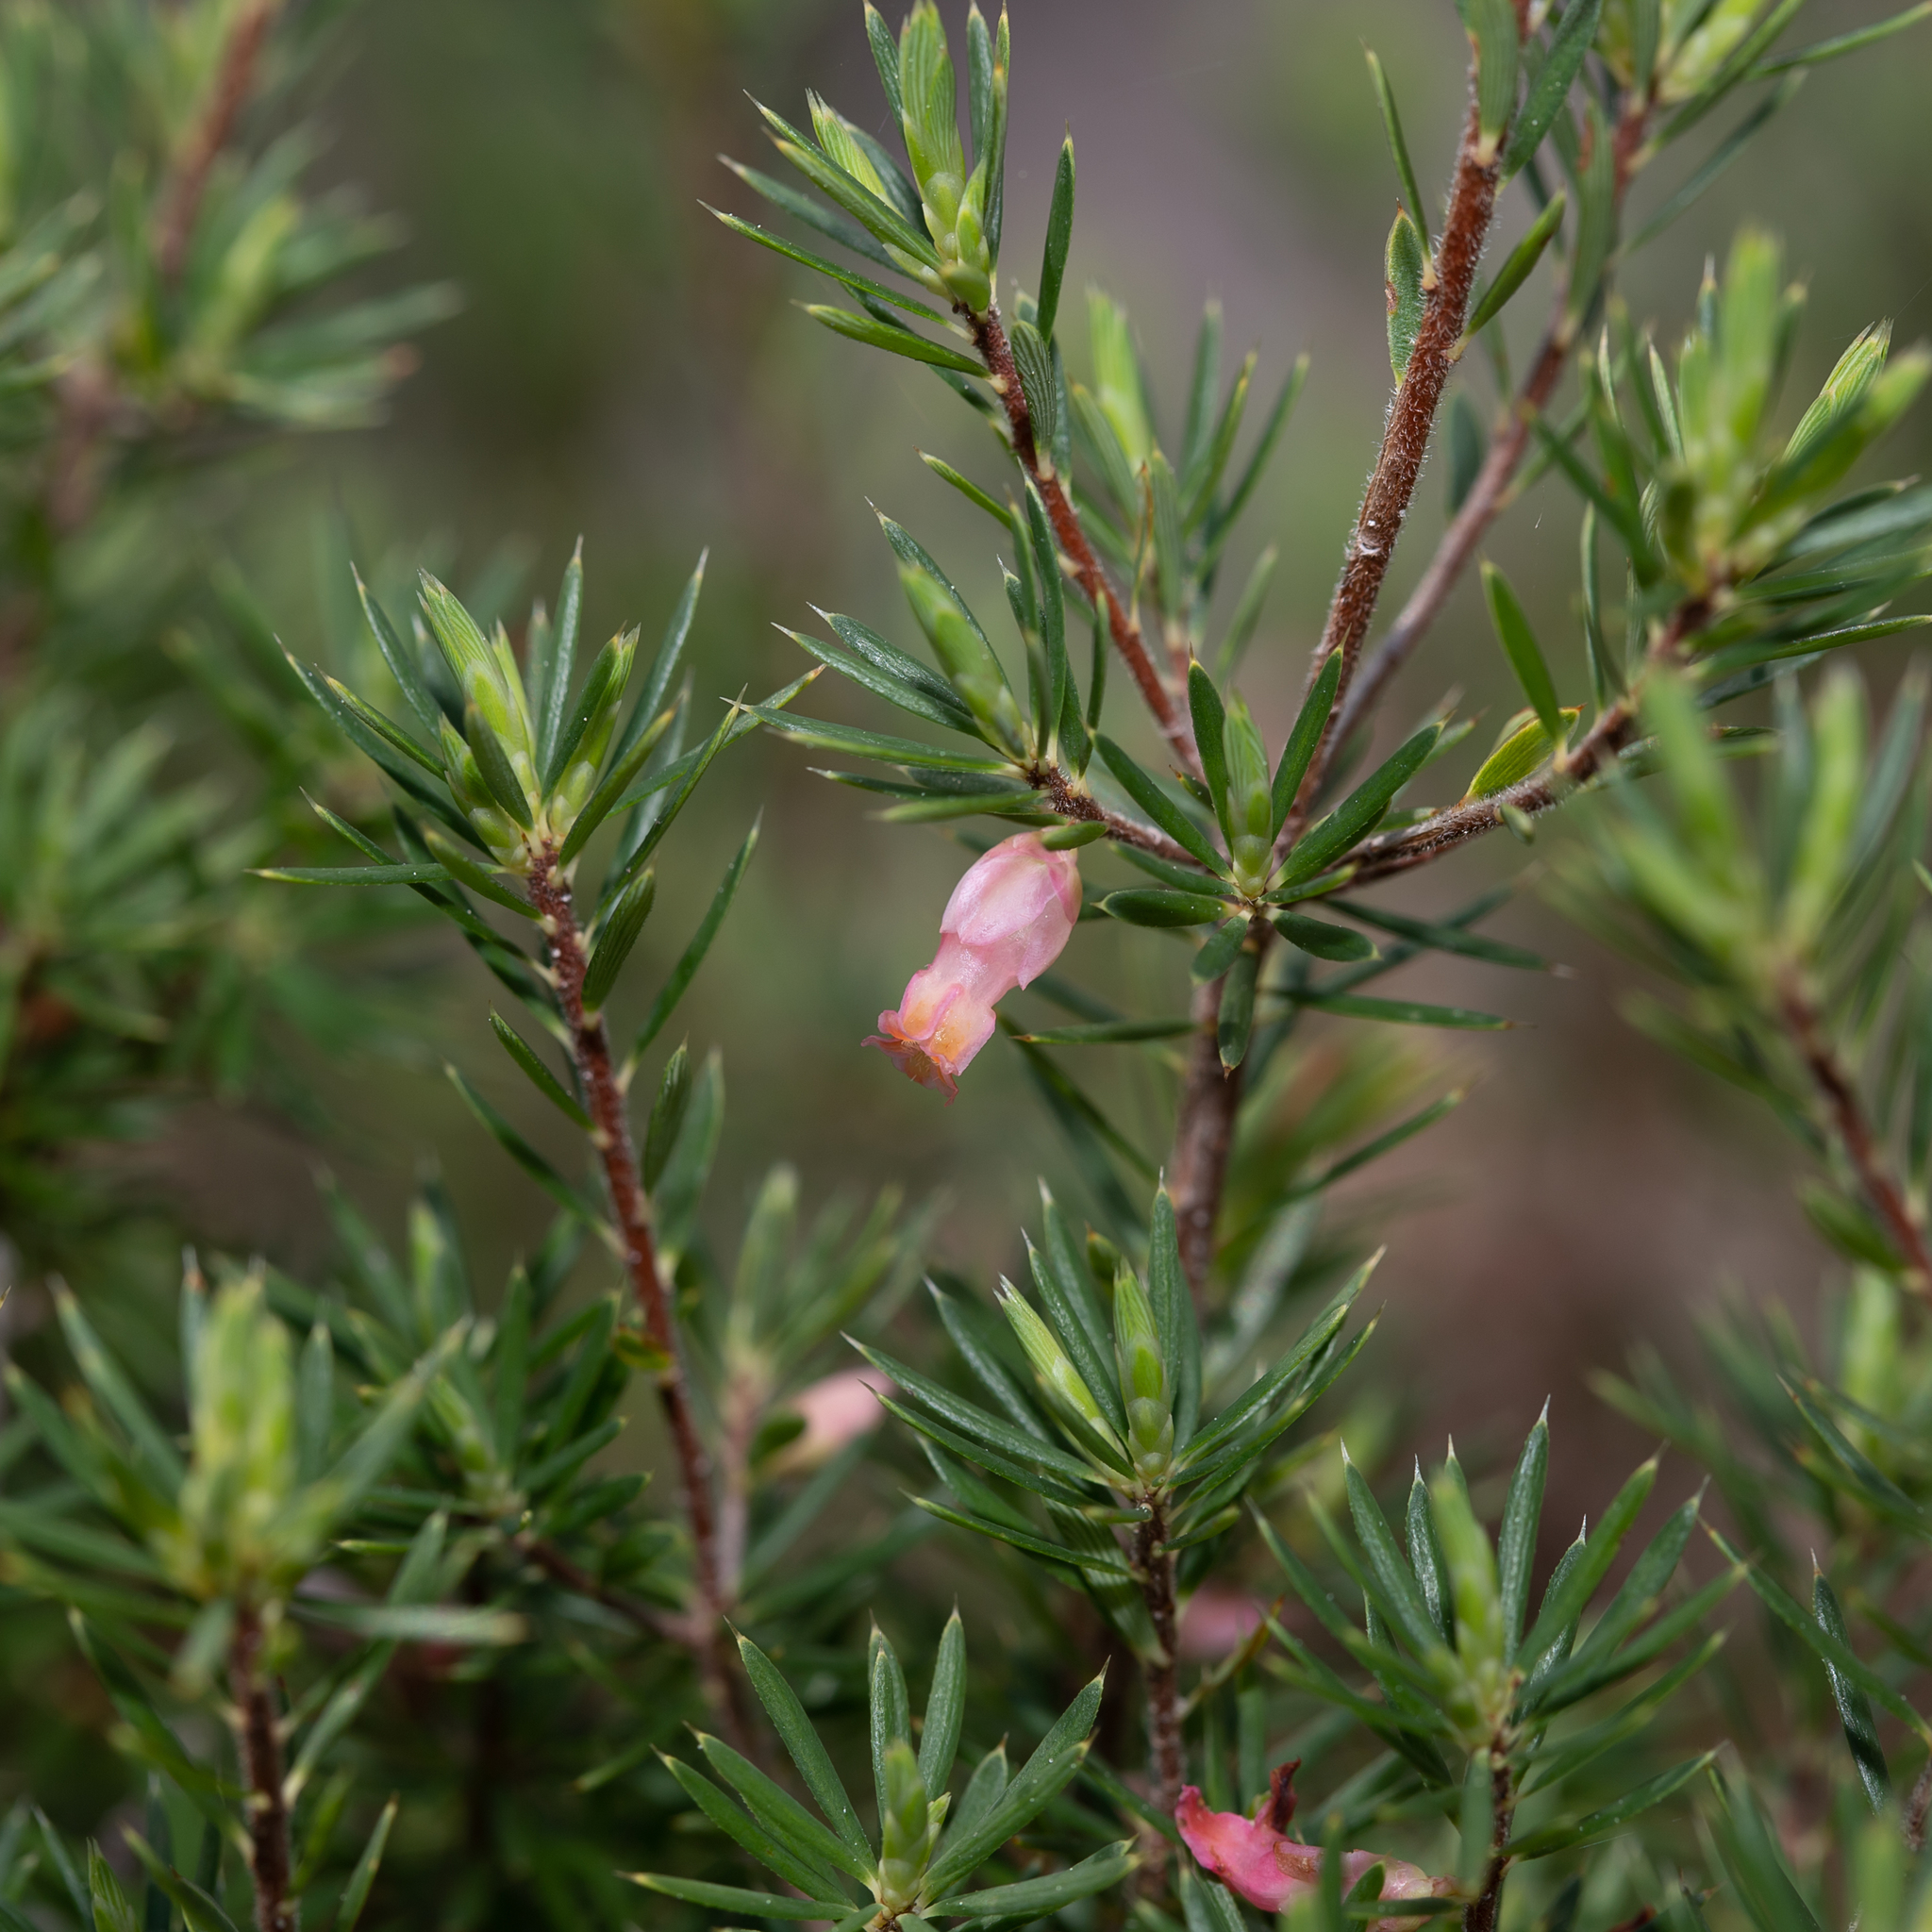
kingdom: Plantae
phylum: Tracheophyta
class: Magnoliopsida
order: Ericales
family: Ericaceae
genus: Brachyloma
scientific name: Brachyloma ericoides
